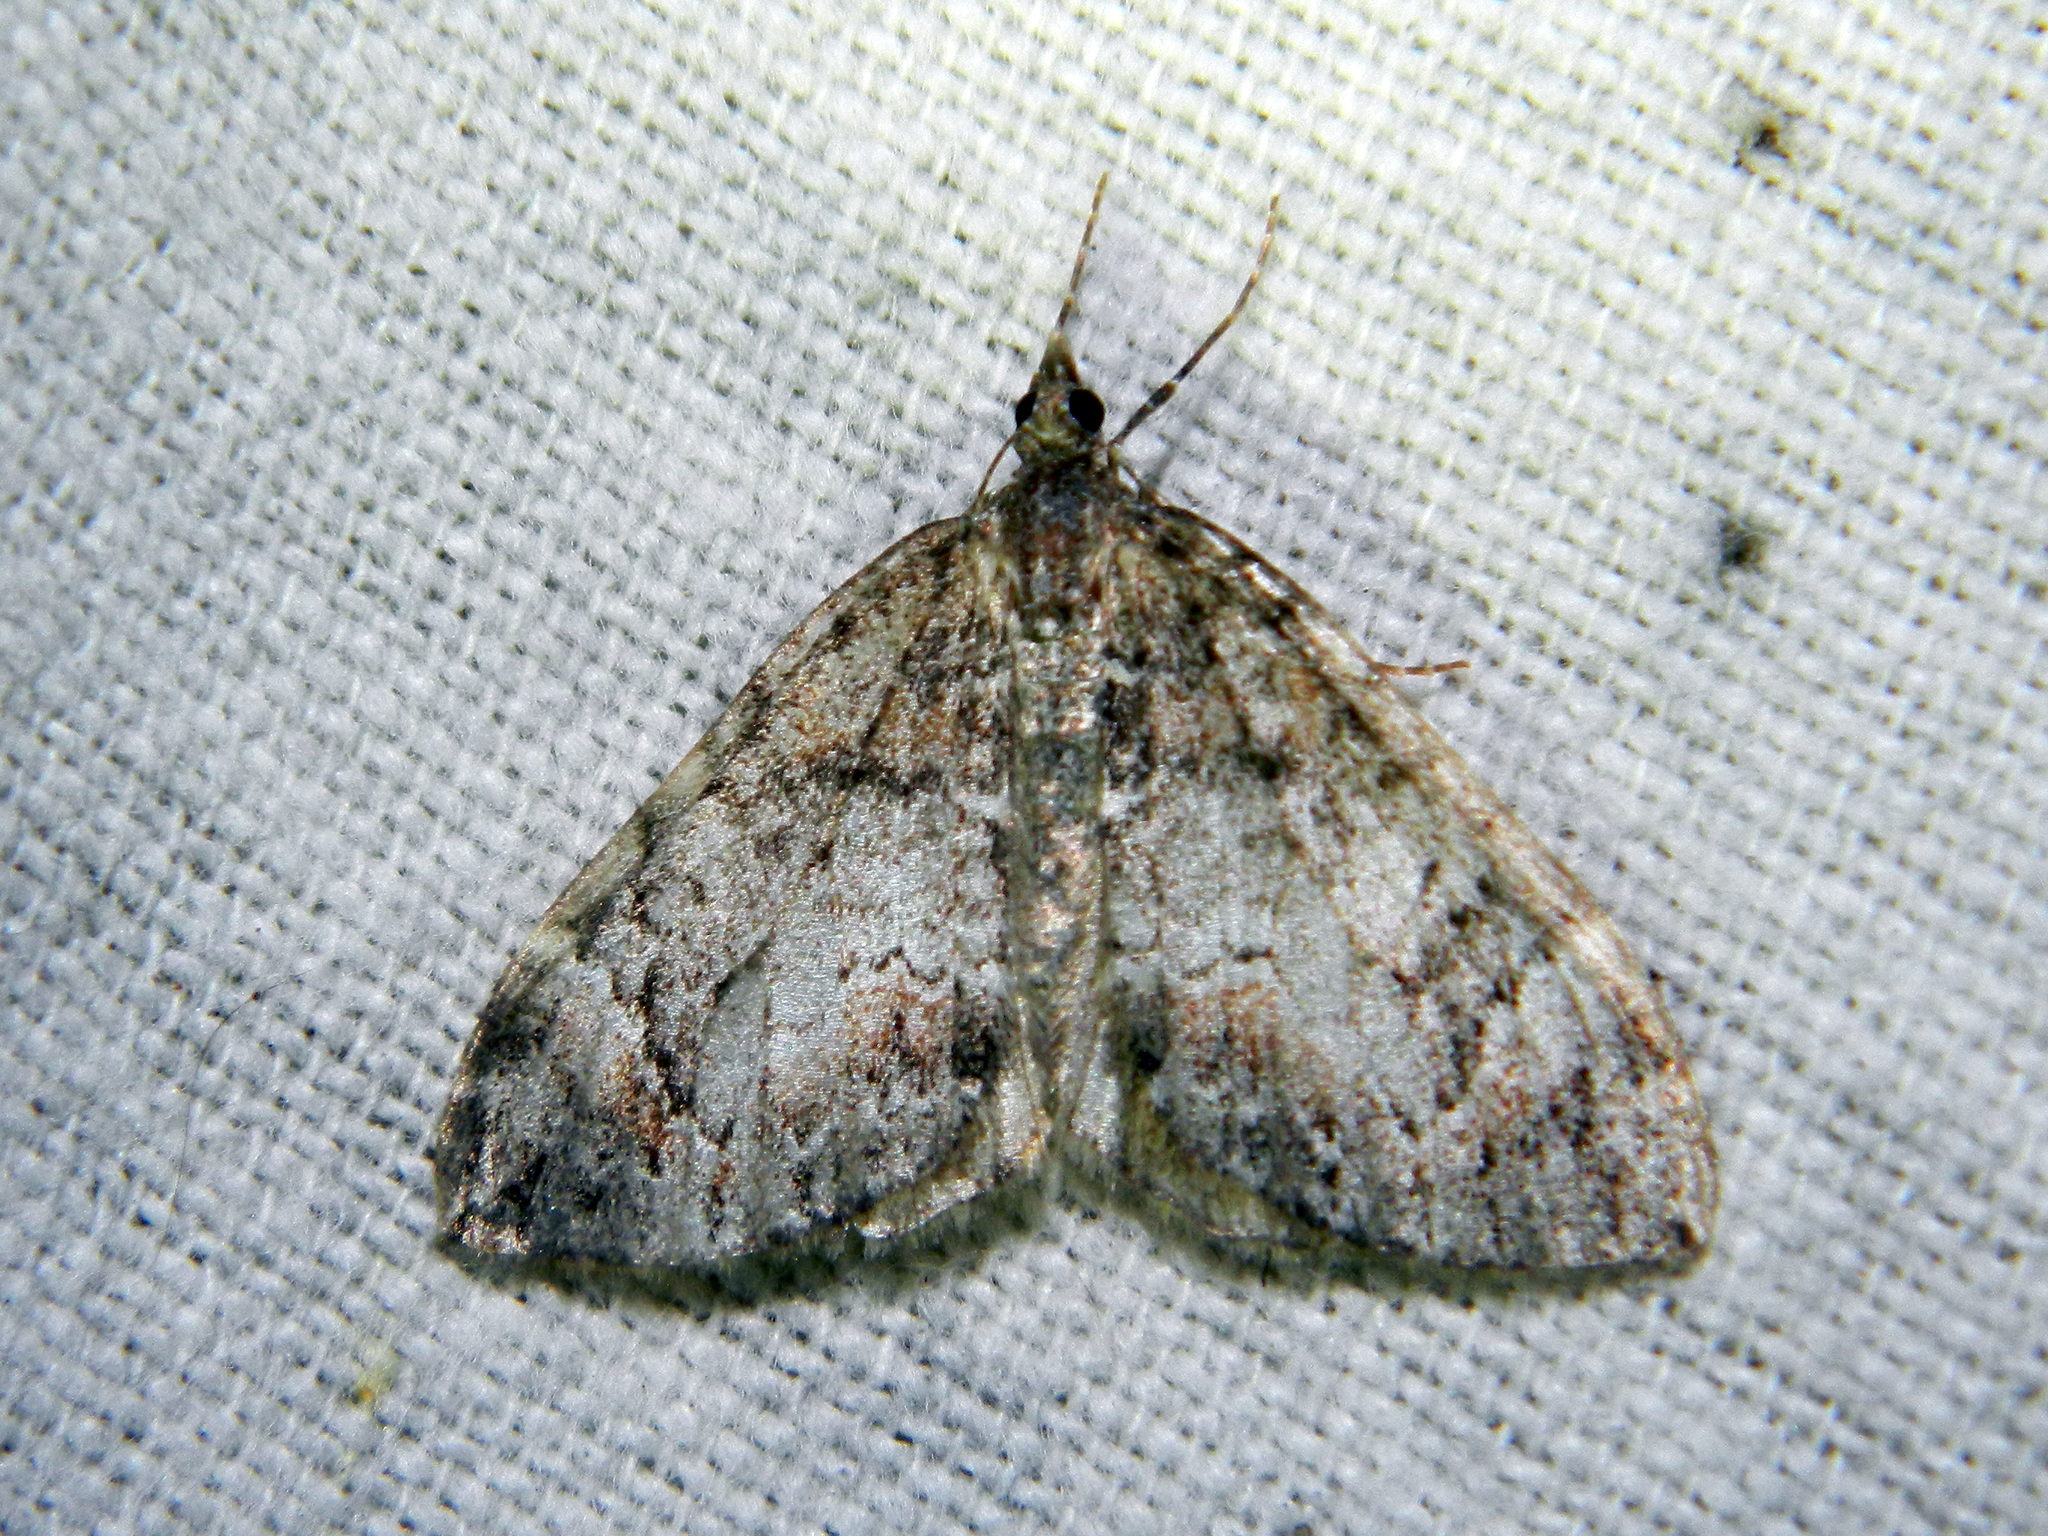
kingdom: Animalia
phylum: Arthropoda
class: Insecta
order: Lepidoptera
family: Geometridae
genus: Dysstroma
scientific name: Dysstroma citrata
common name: Dark marbled carpet
